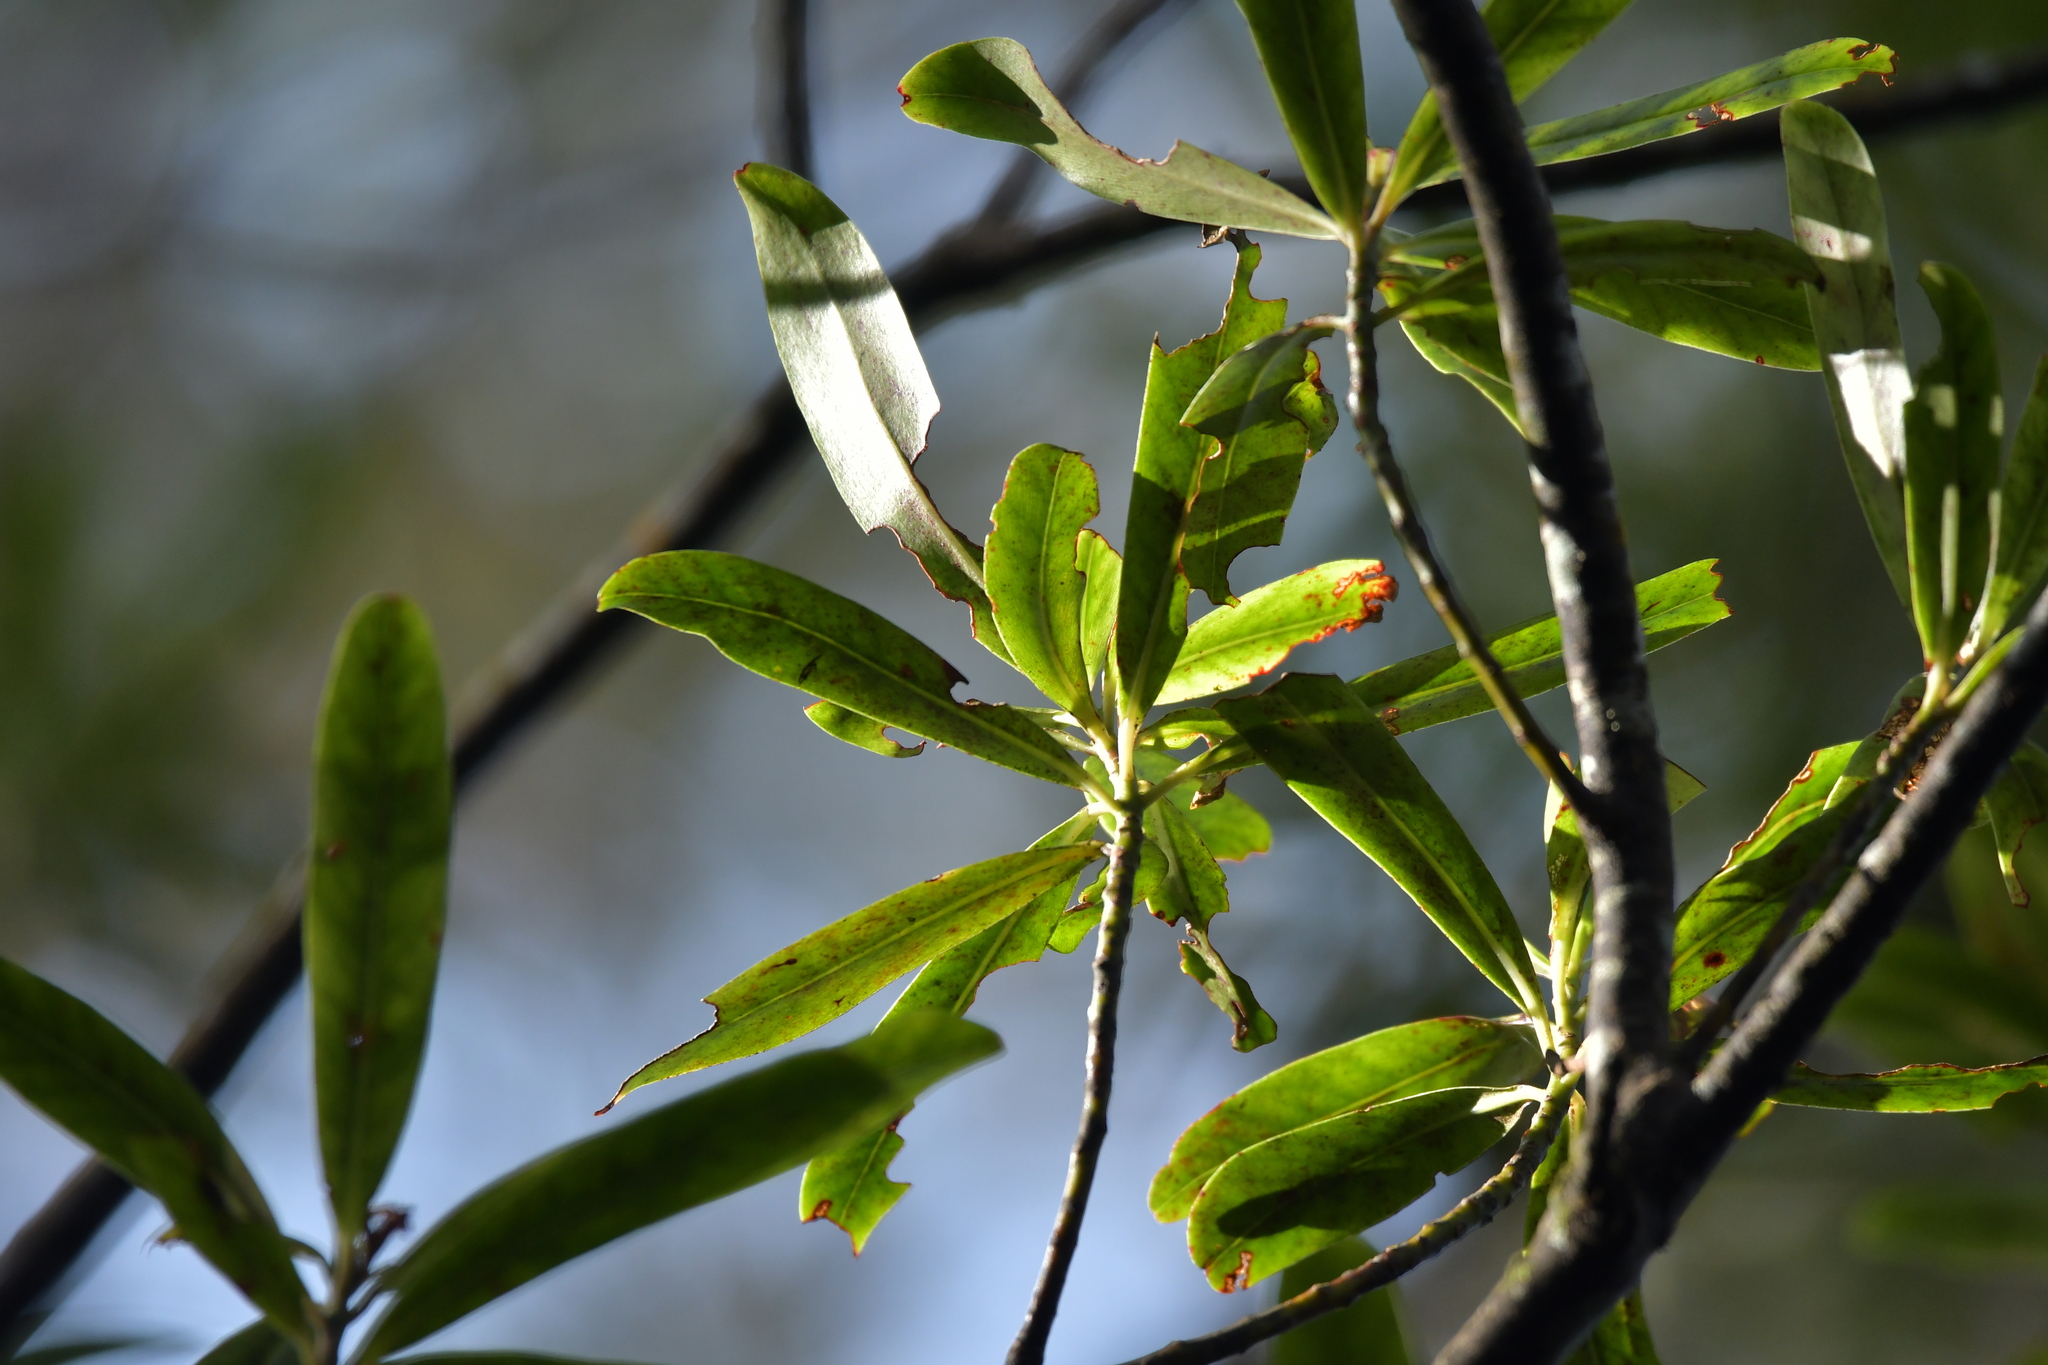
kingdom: Plantae
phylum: Tracheophyta
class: Magnoliopsida
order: Ericales
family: Primulaceae
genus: Myrsine
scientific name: Myrsine salicina
